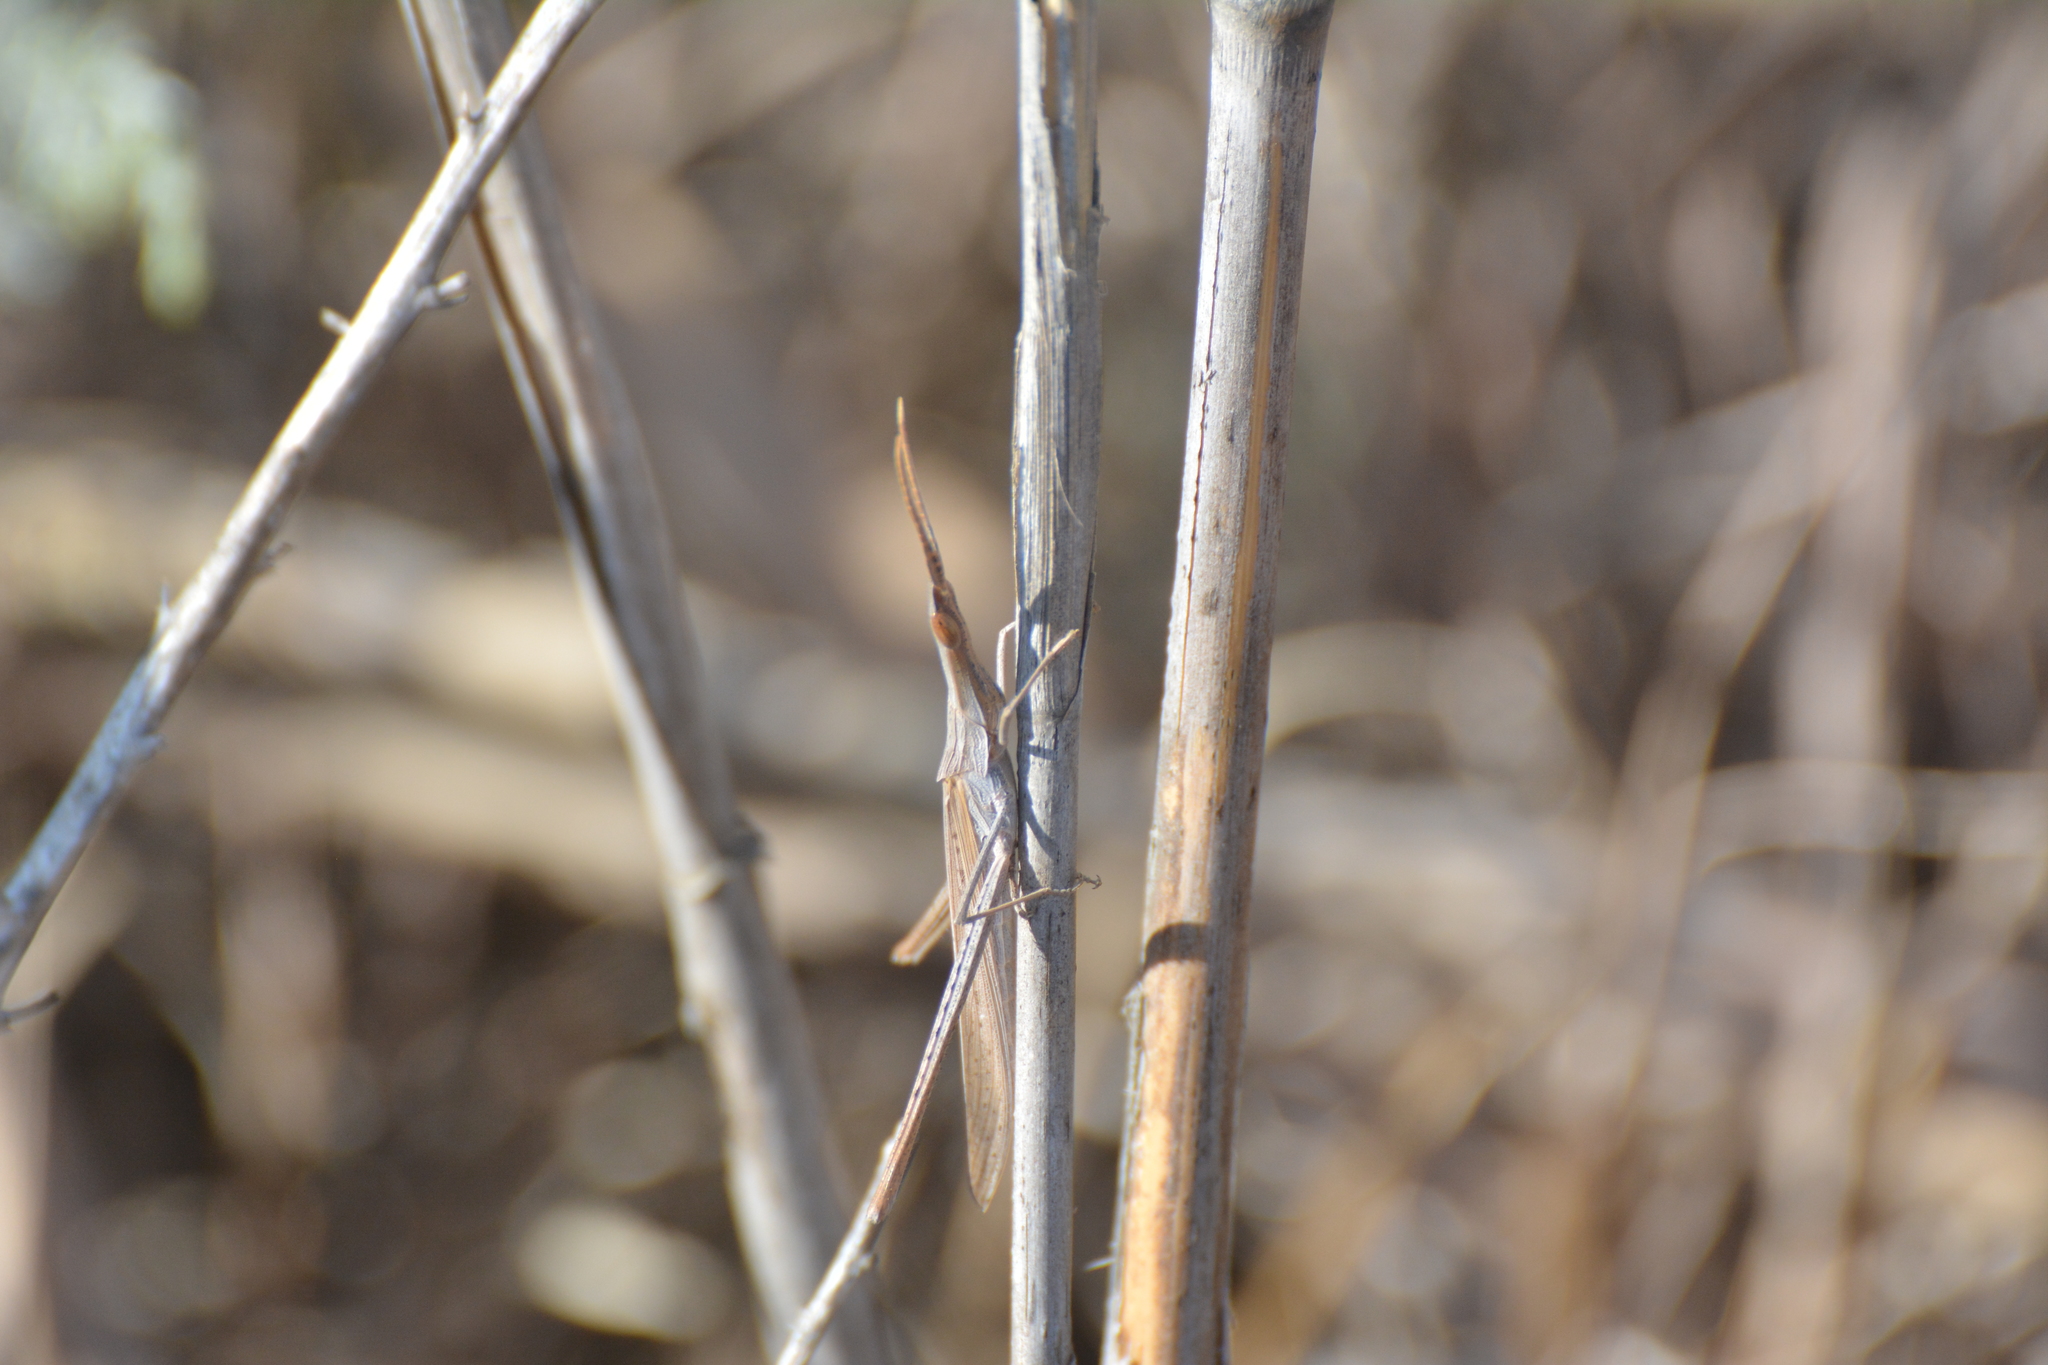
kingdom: Animalia
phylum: Arthropoda
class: Insecta
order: Orthoptera
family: Acrididae
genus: Acrida
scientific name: Acrida ungarica
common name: Common cone-headed grasshopper
